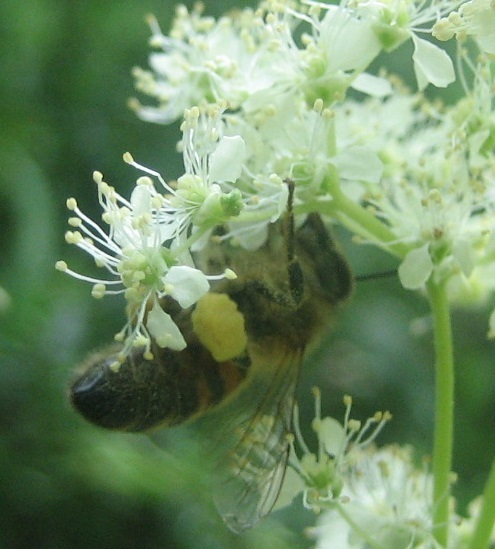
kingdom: Animalia
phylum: Arthropoda
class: Insecta
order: Hymenoptera
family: Apidae
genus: Apis
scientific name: Apis mellifera
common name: Honey bee
